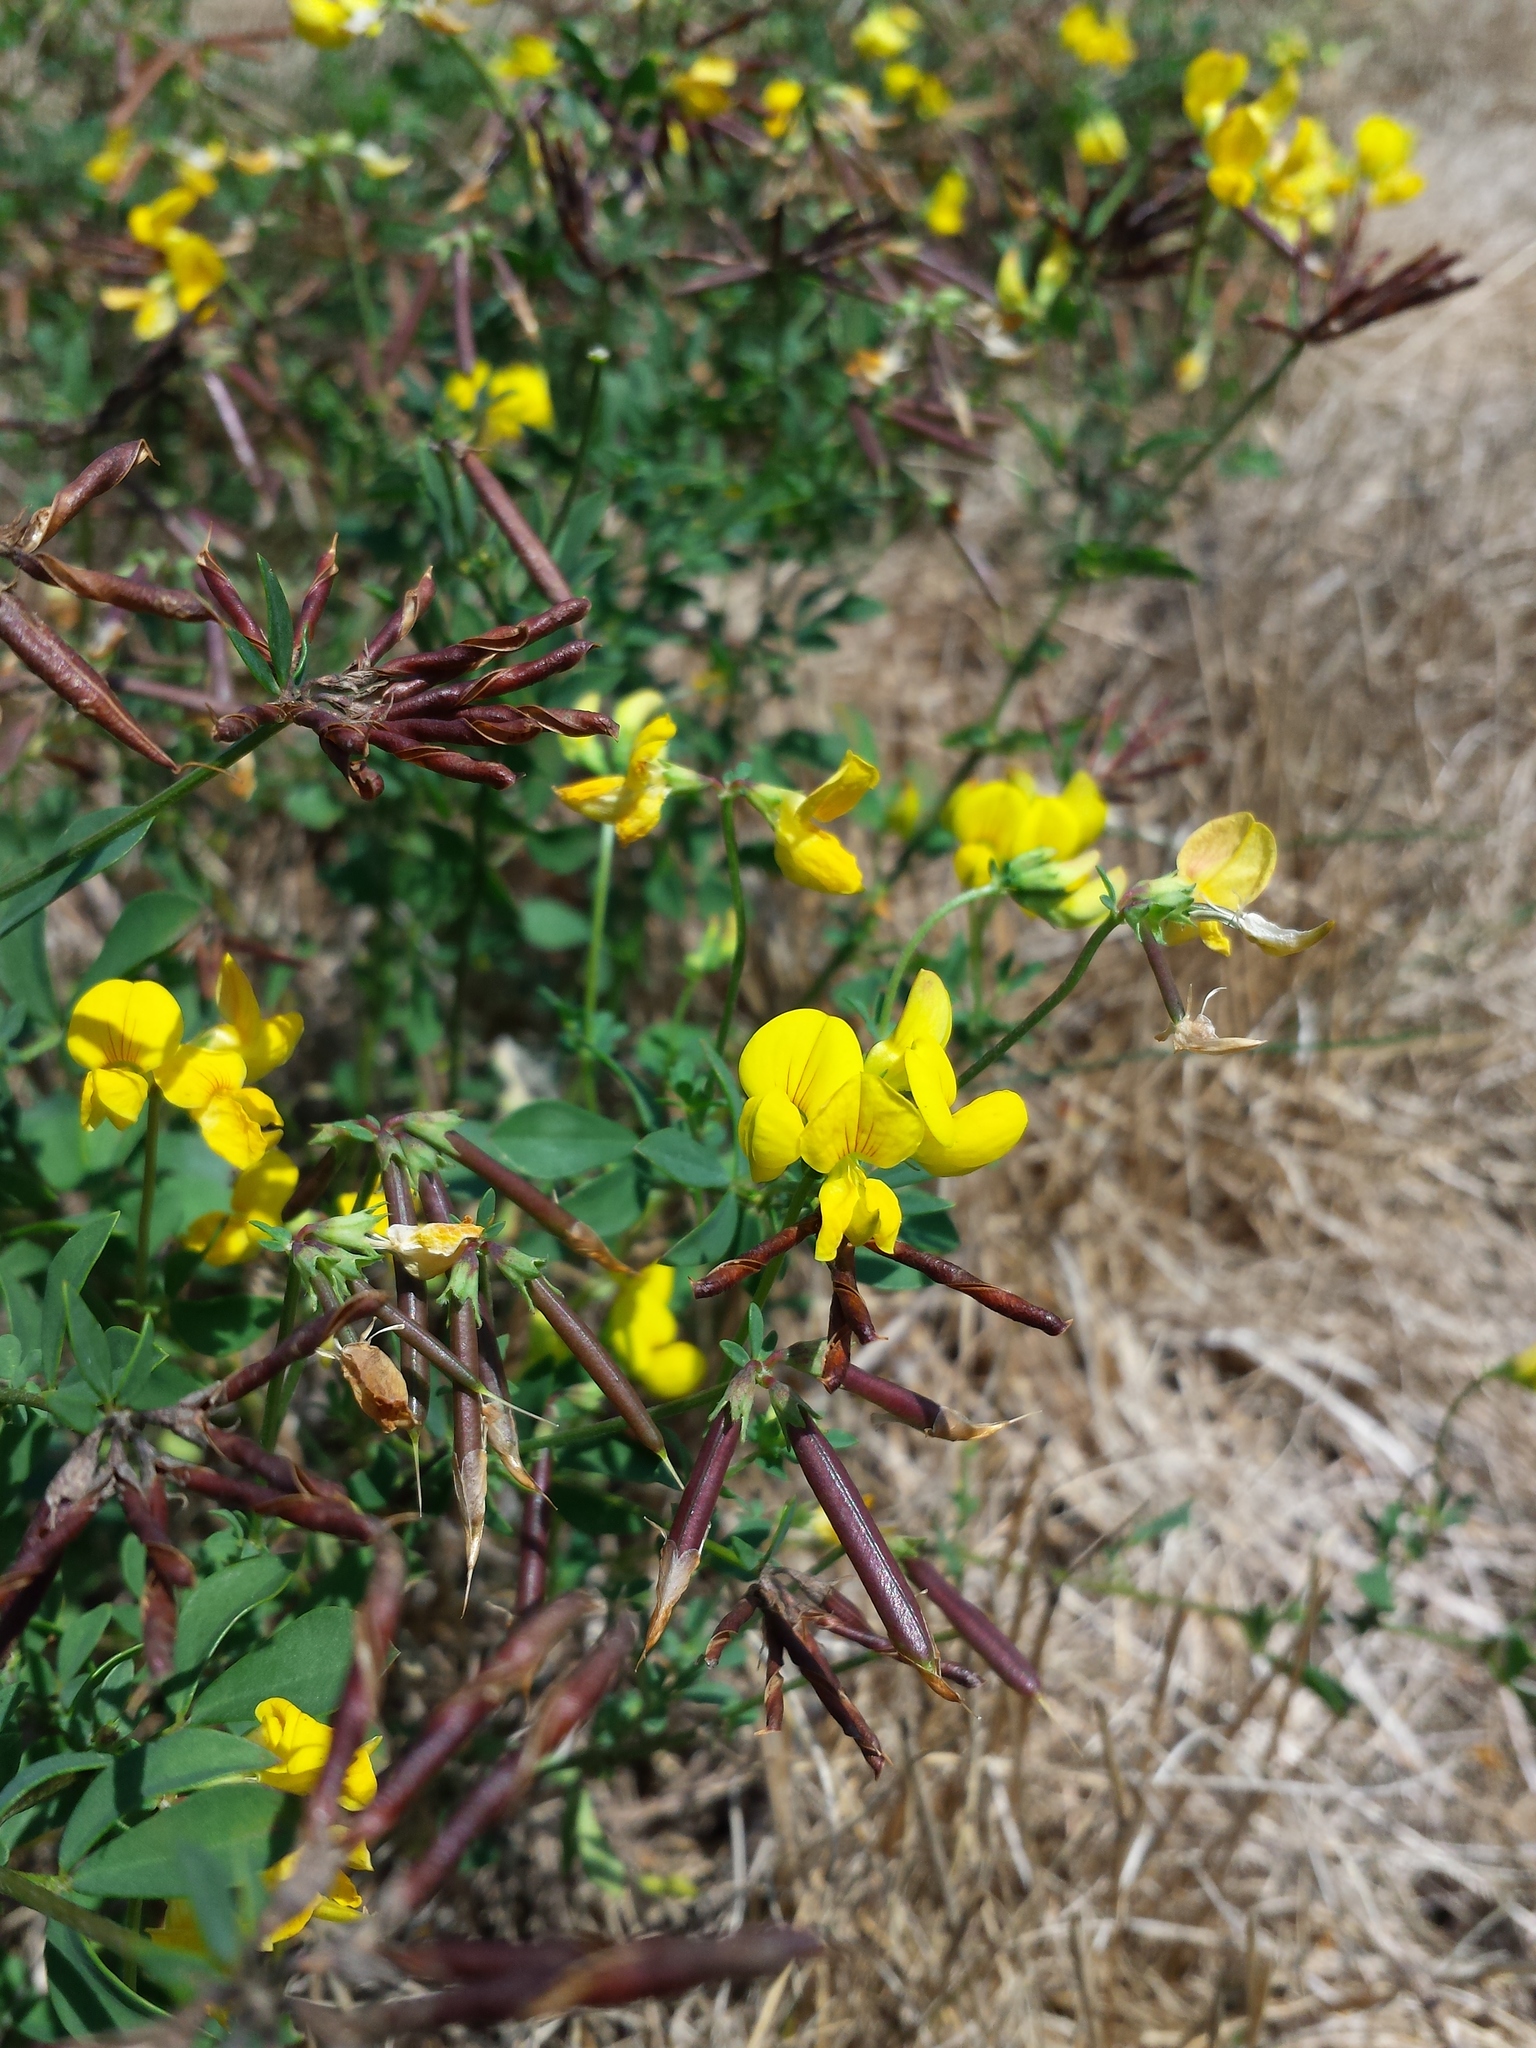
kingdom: Plantae
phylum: Tracheophyta
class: Magnoliopsida
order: Fabales
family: Fabaceae
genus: Lotus
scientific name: Lotus corniculatus
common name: Common bird's-foot-trefoil
